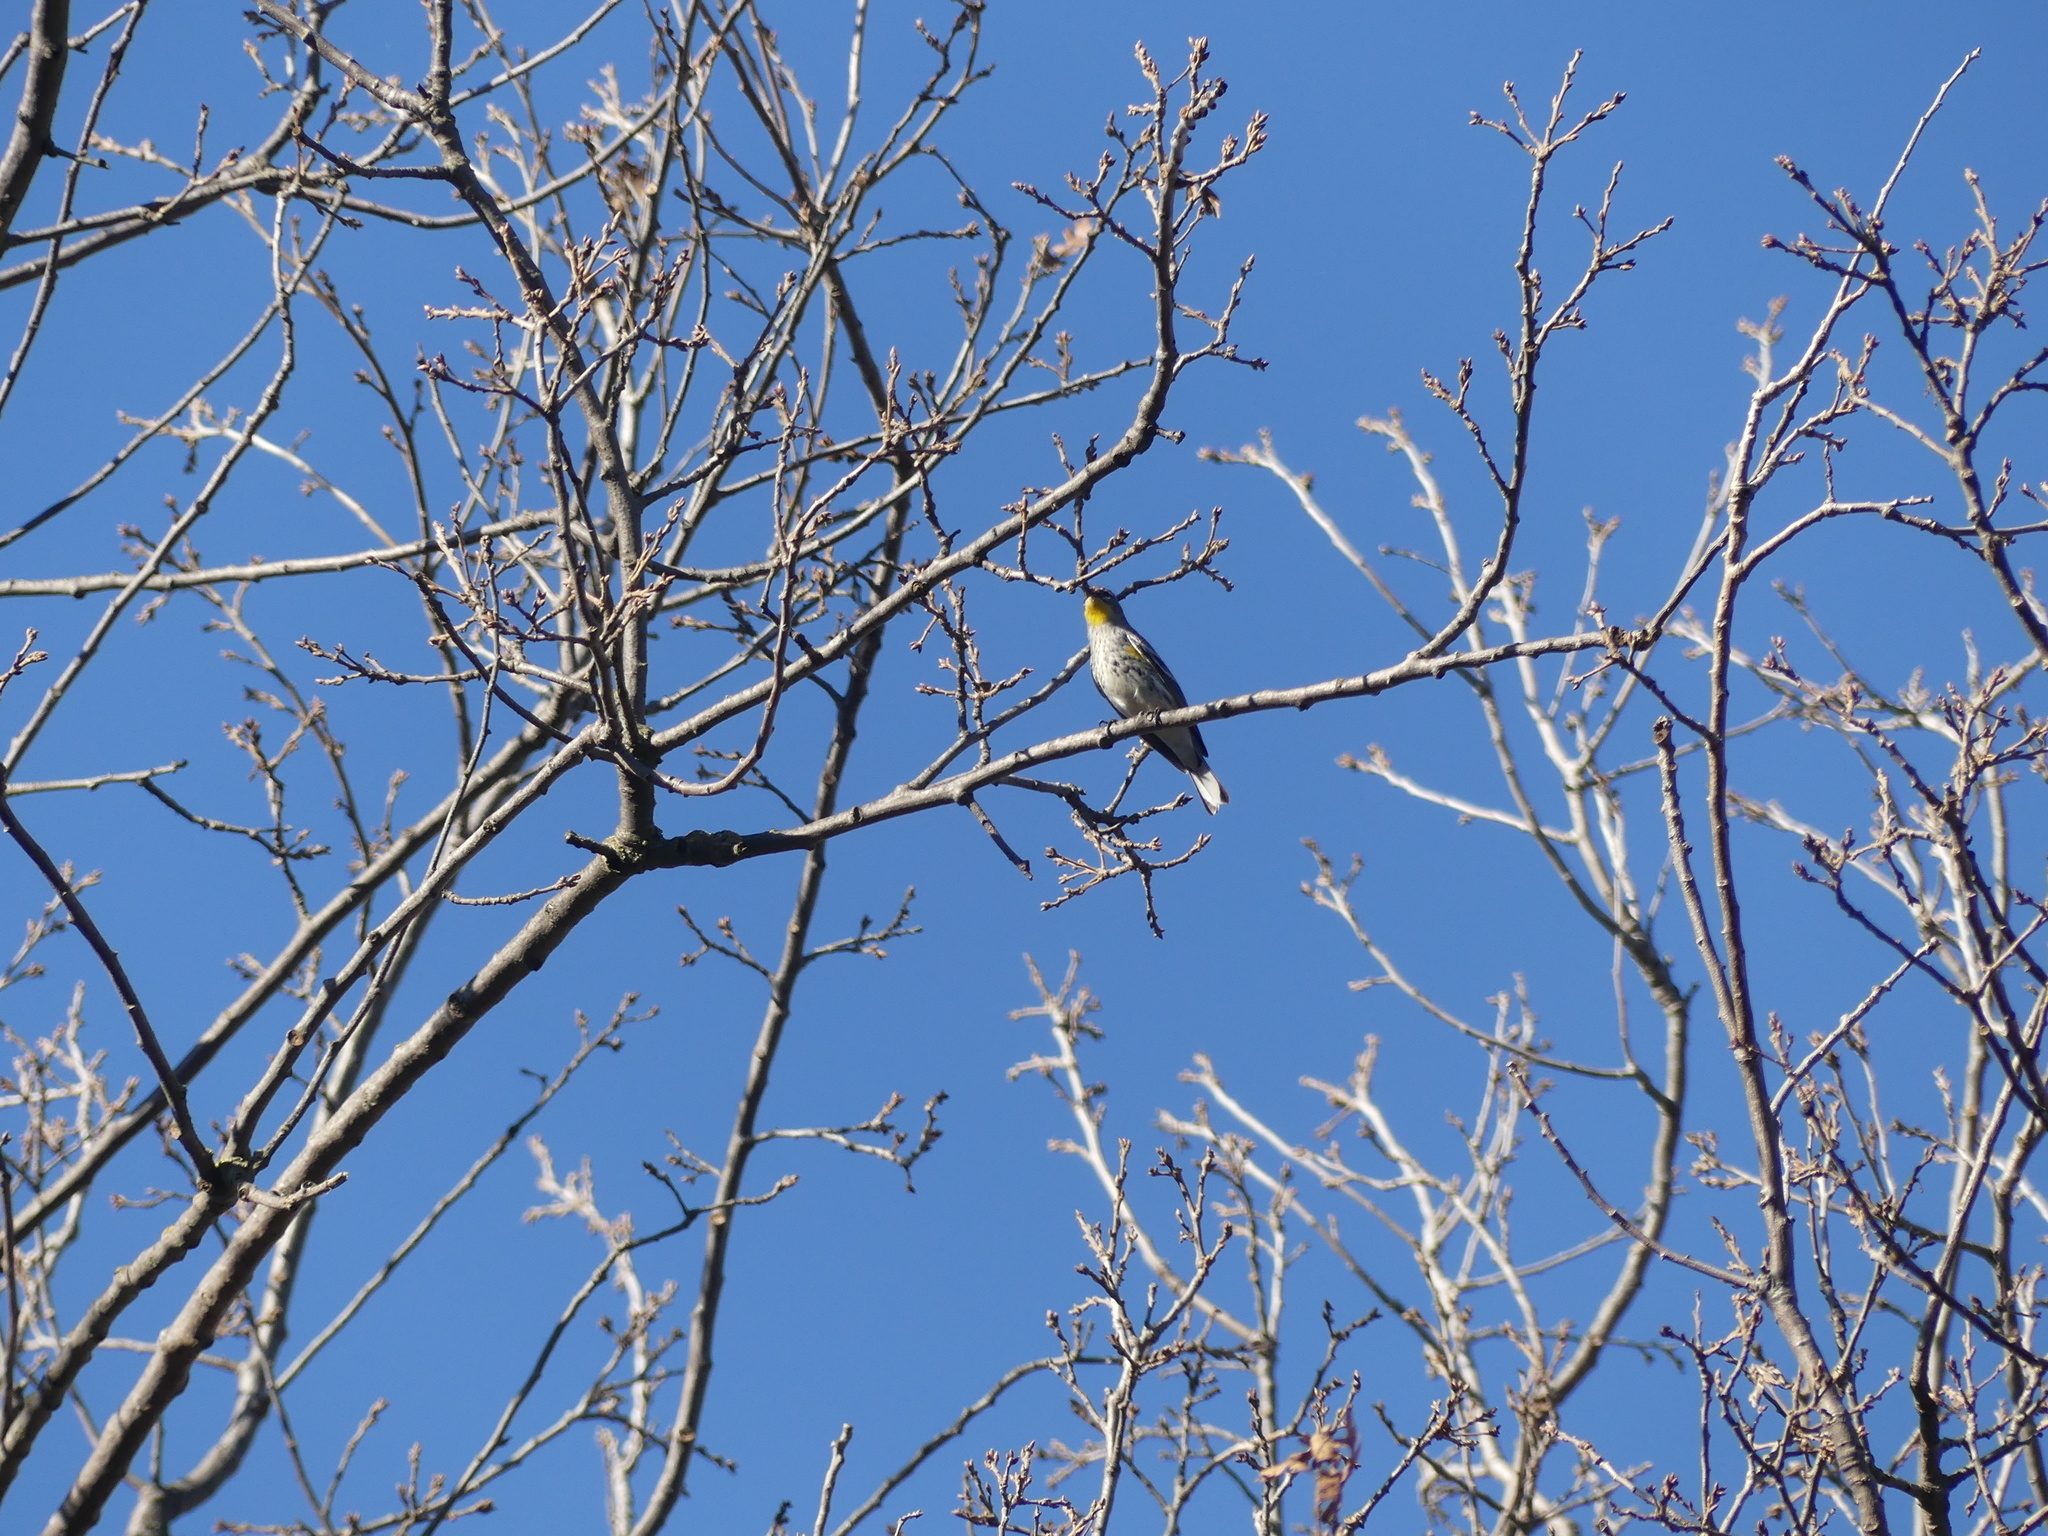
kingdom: Animalia
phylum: Chordata
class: Aves
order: Passeriformes
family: Parulidae
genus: Setophaga
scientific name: Setophaga coronata
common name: Myrtle warbler
